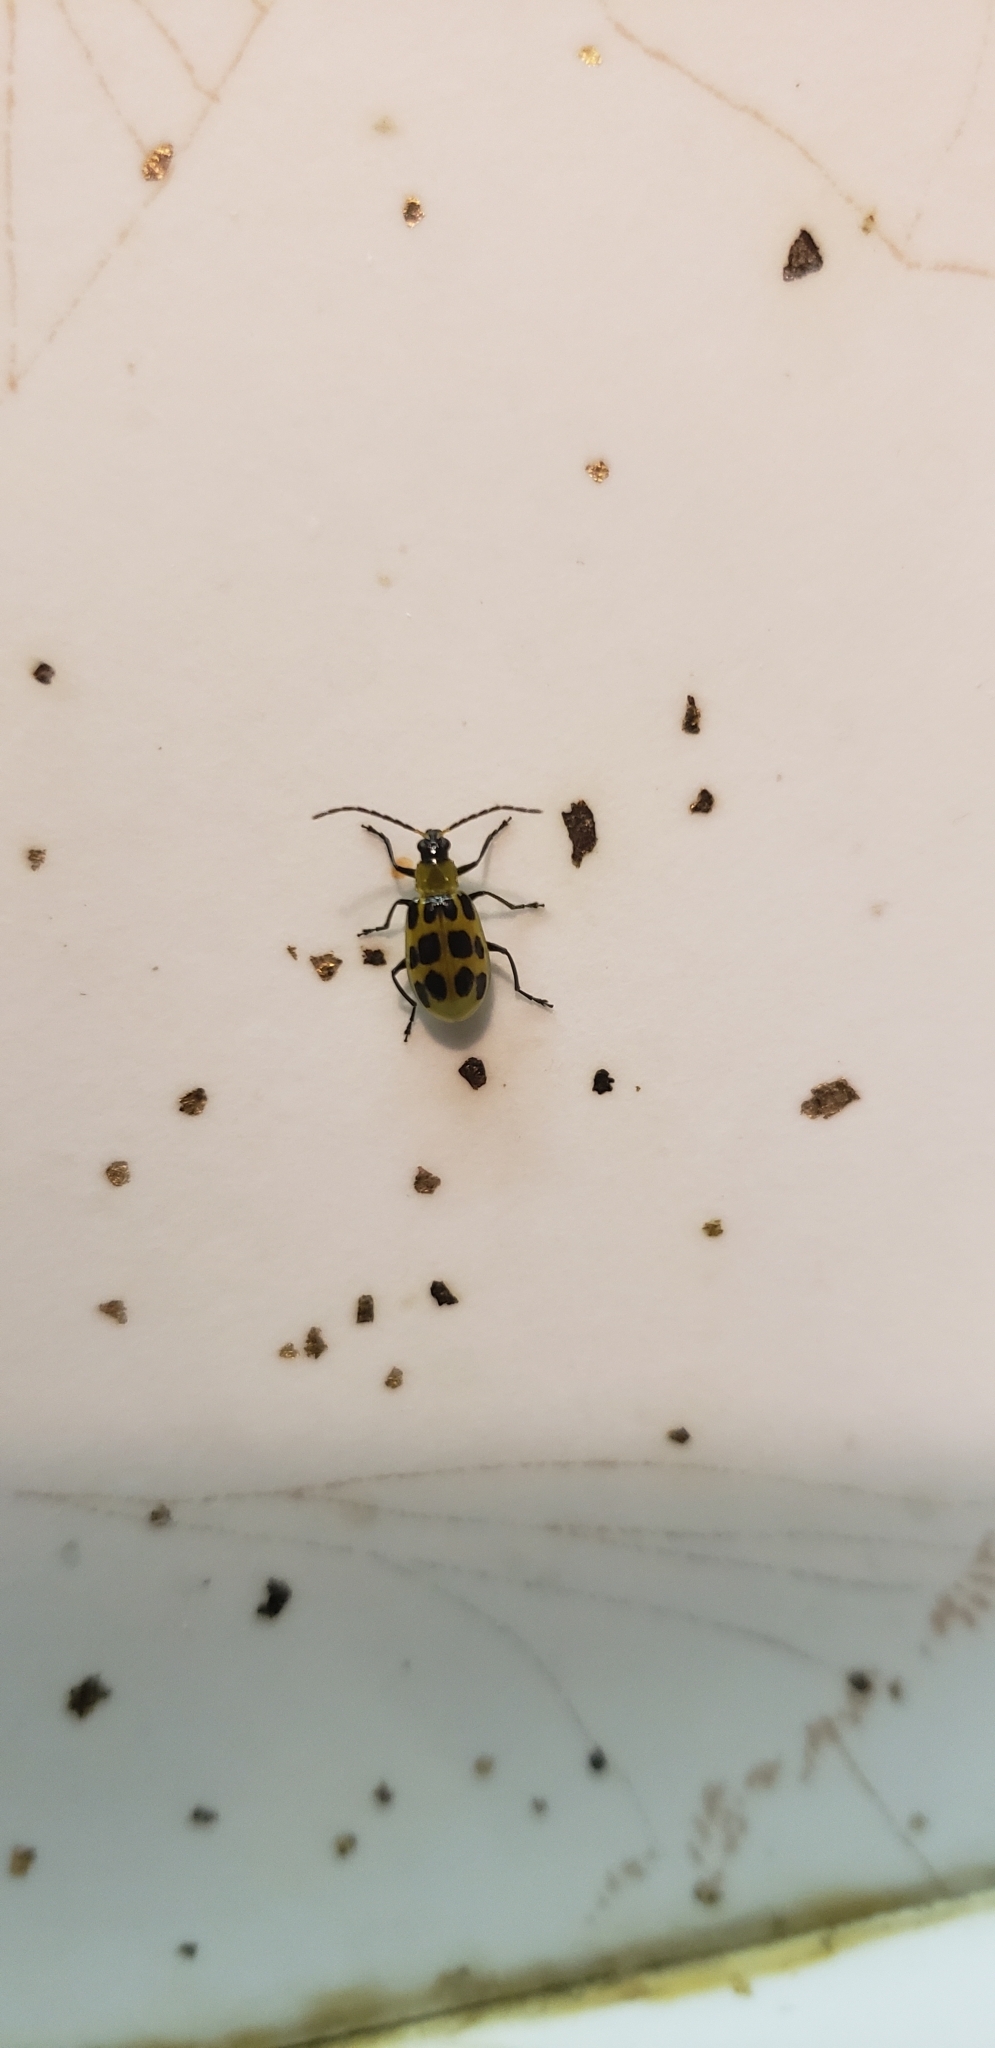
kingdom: Animalia
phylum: Arthropoda
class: Insecta
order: Coleoptera
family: Chrysomelidae
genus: Diabrotica
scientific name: Diabrotica undecimpunctata
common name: Spotted cucumber beetle
